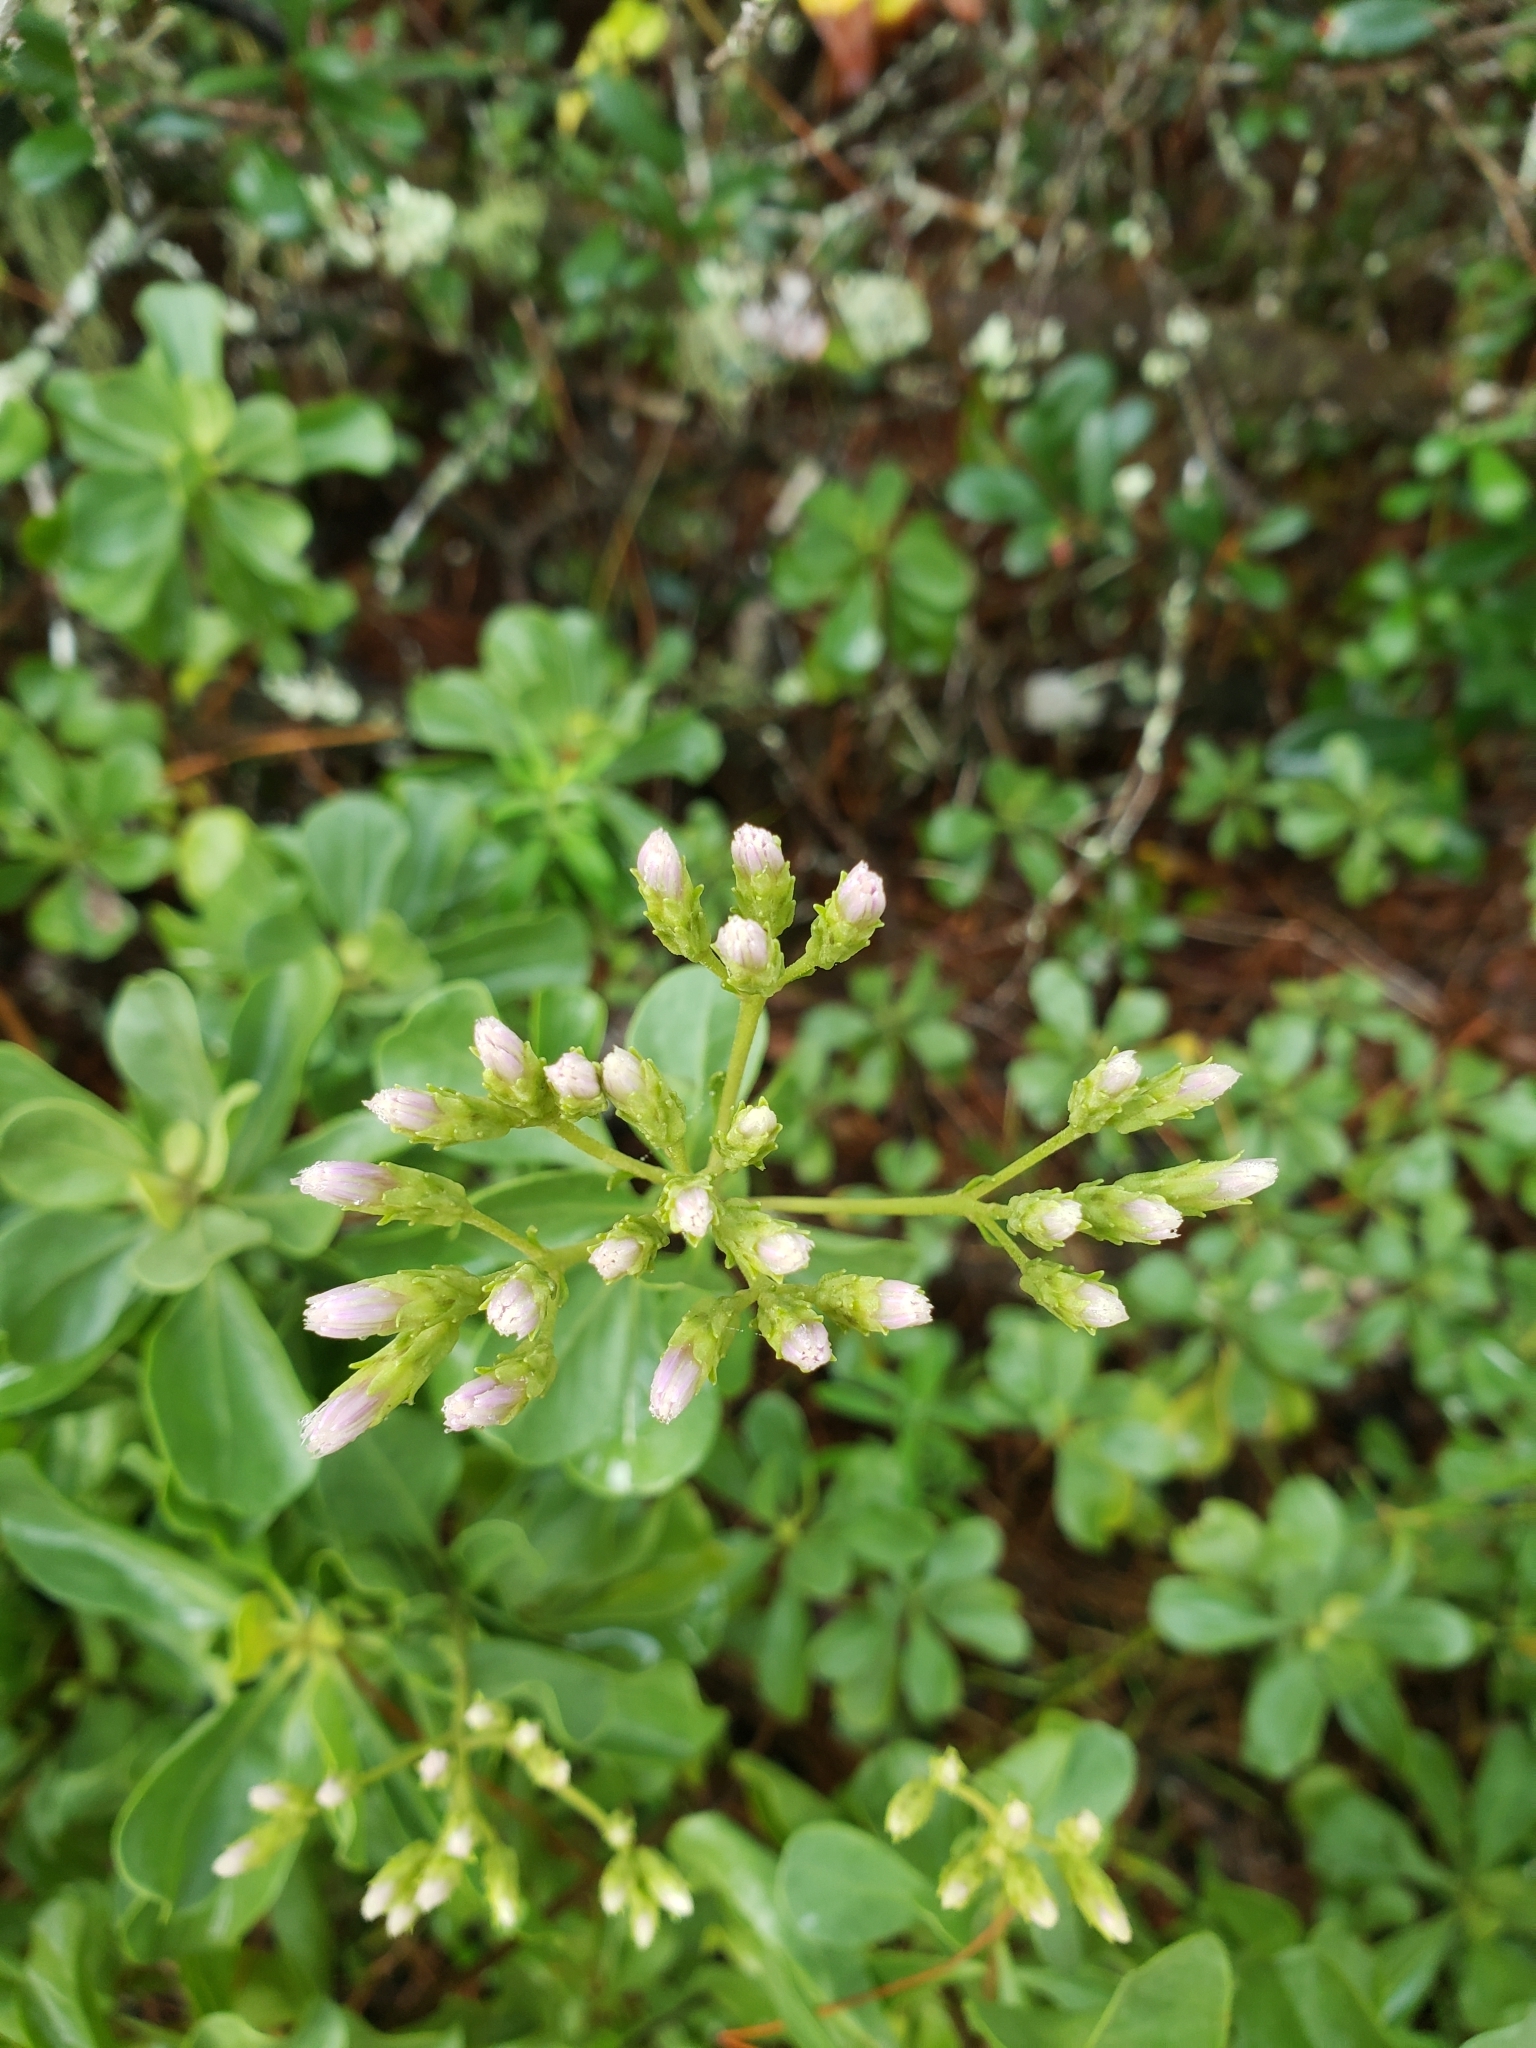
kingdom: Plantae
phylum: Tracheophyta
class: Magnoliopsida
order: Asterales
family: Asteraceae
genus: Garberia
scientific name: Garberia heterophylla
